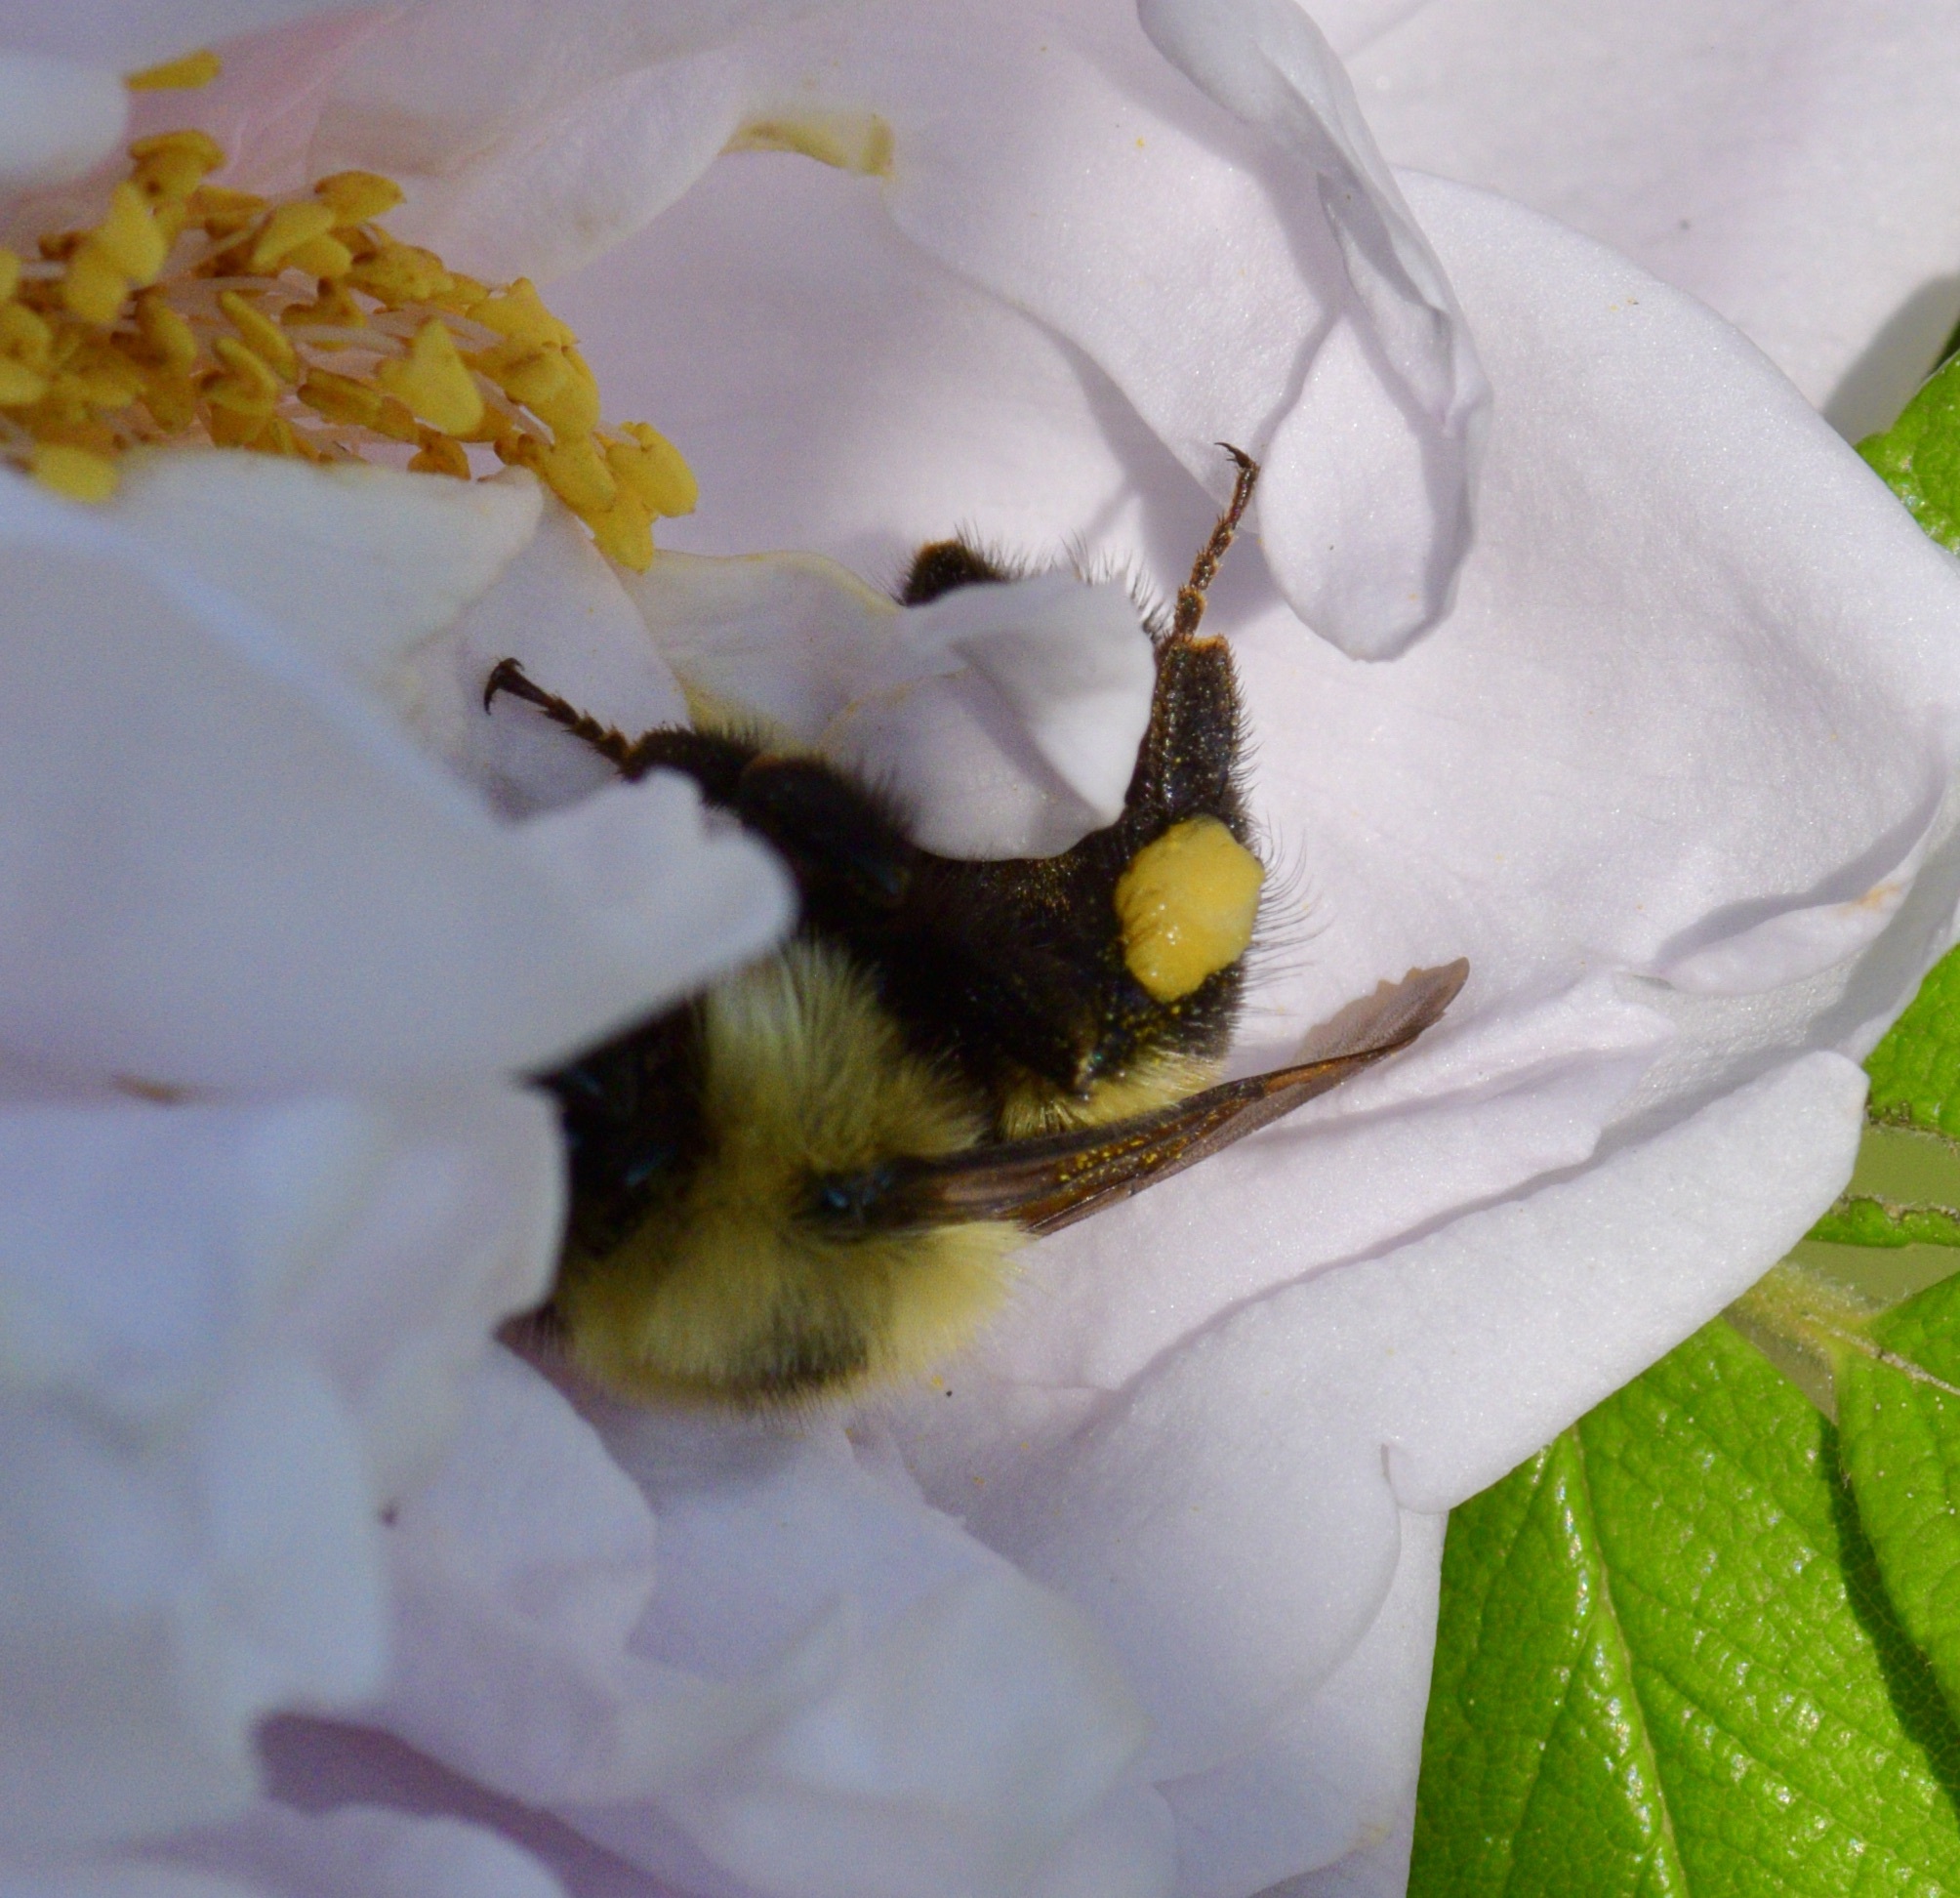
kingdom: Animalia
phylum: Arthropoda
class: Insecta
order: Hymenoptera
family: Apidae
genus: Bombus
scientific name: Bombus bimaculatus
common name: Two-spotted bumble bee
